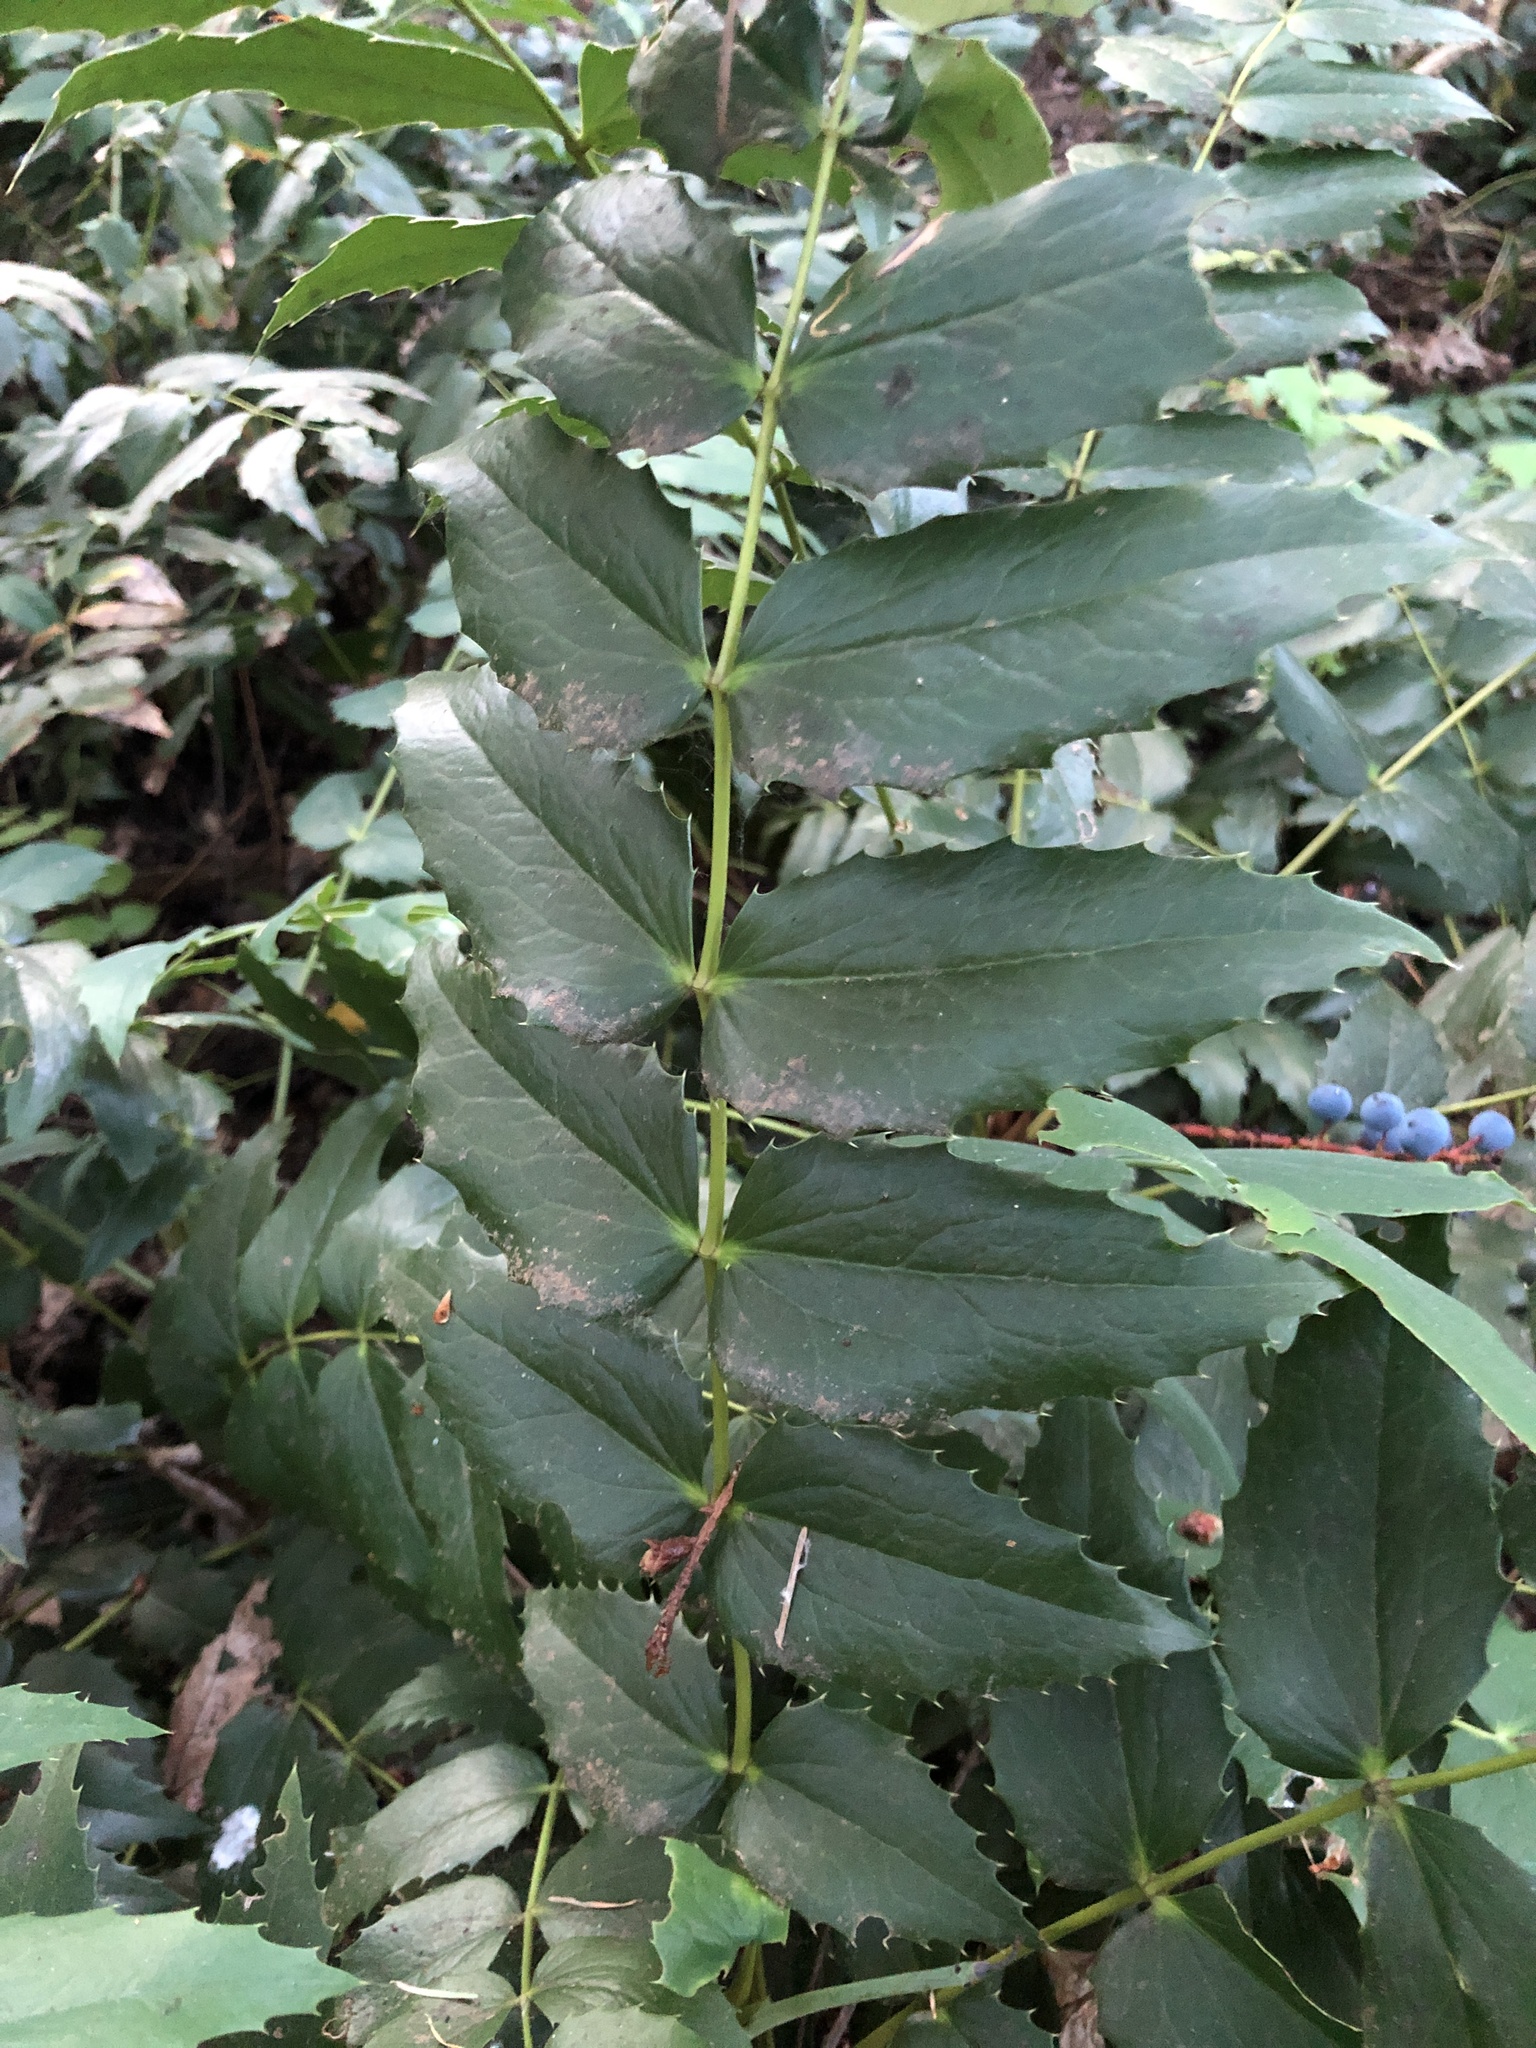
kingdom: Plantae
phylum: Tracheophyta
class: Magnoliopsida
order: Ranunculales
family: Berberidaceae
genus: Mahonia
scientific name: Mahonia nervosa
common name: Cascade oregon-grape
